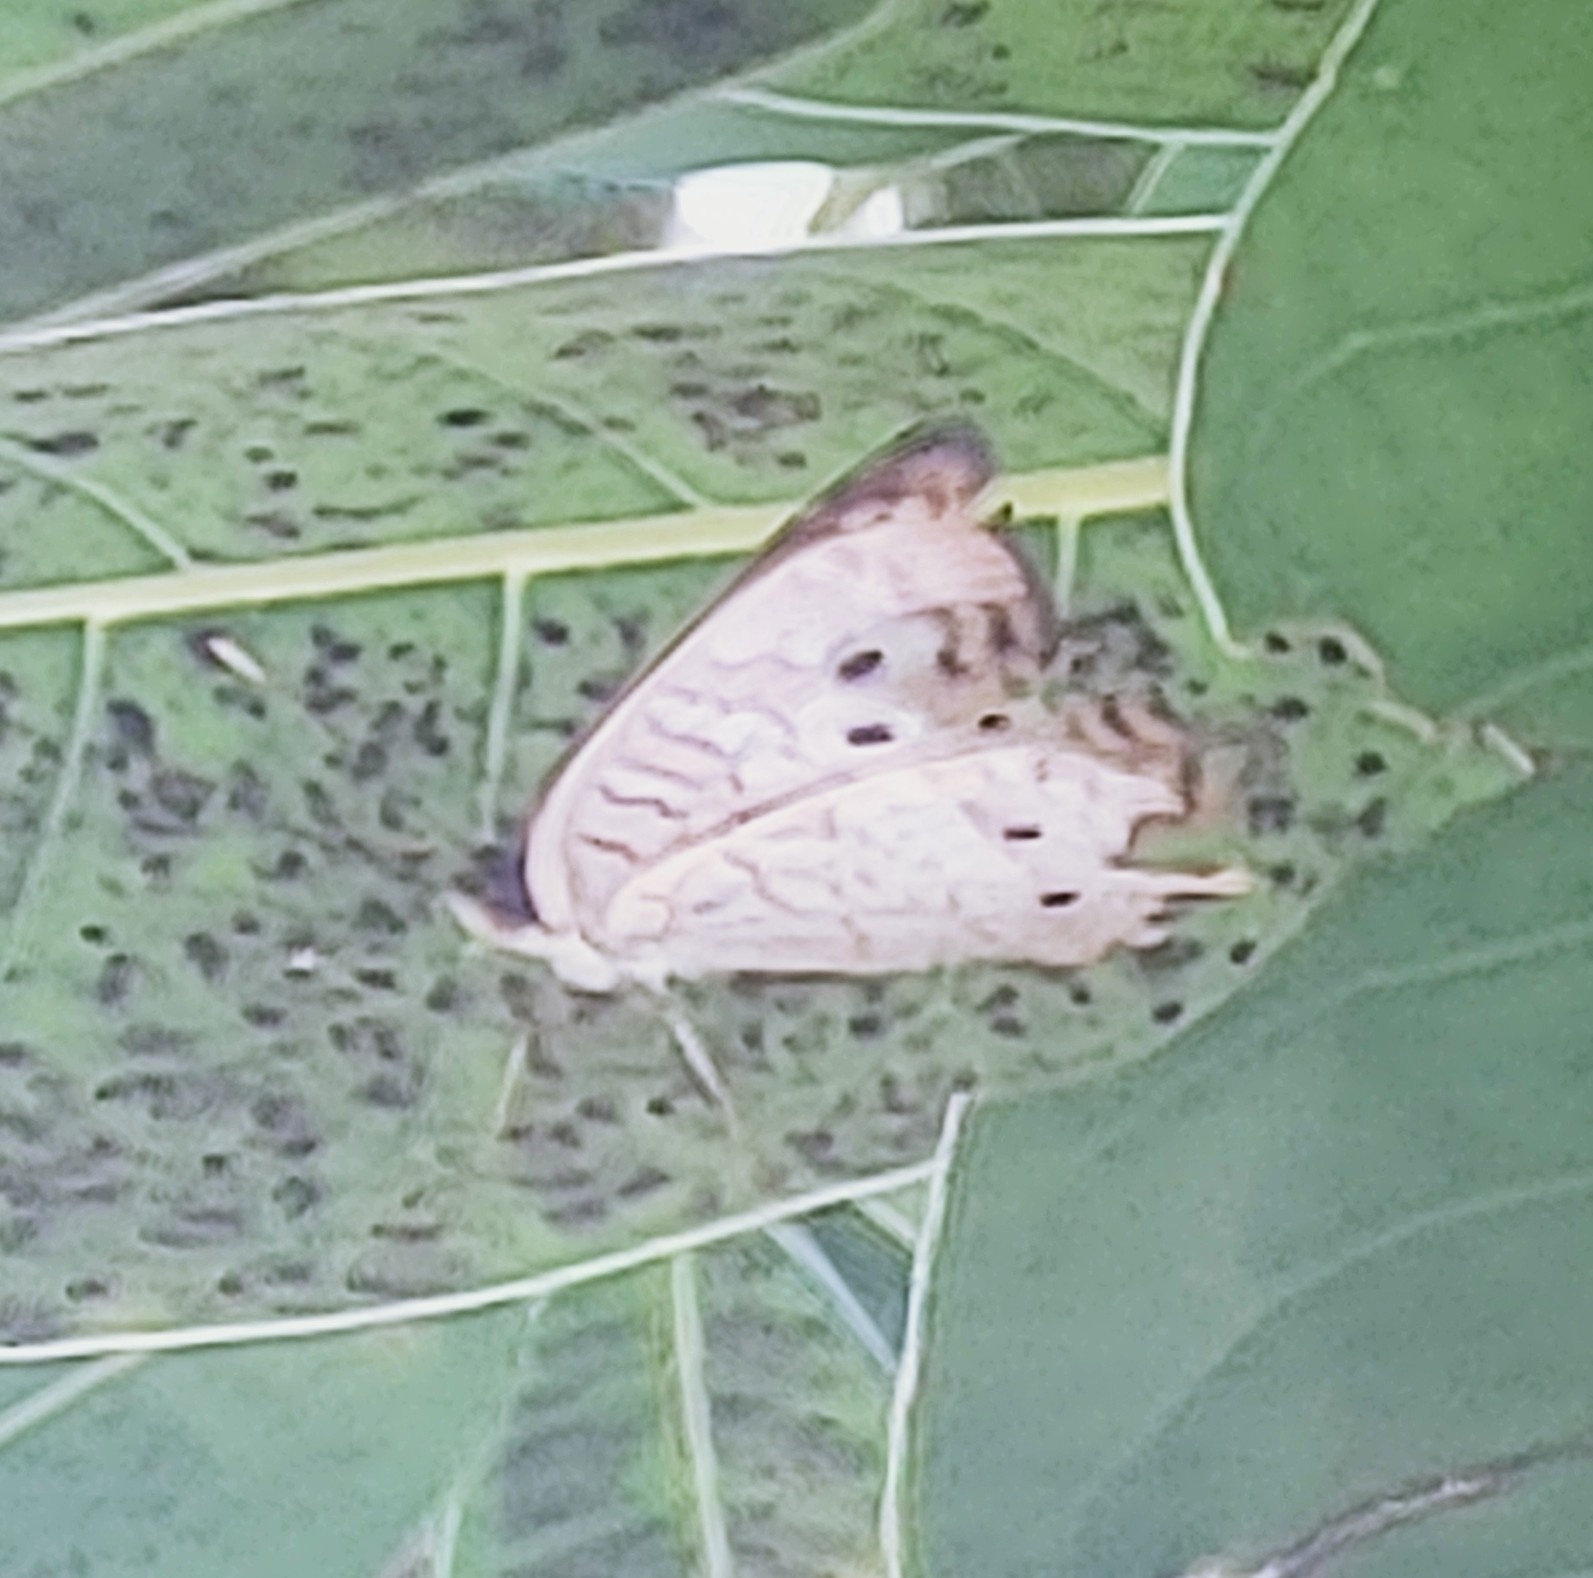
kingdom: Animalia
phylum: Arthropoda
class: Insecta
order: Lepidoptera
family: Nymphalidae
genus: Anartia
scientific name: Anartia jatrophae
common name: White peacock
